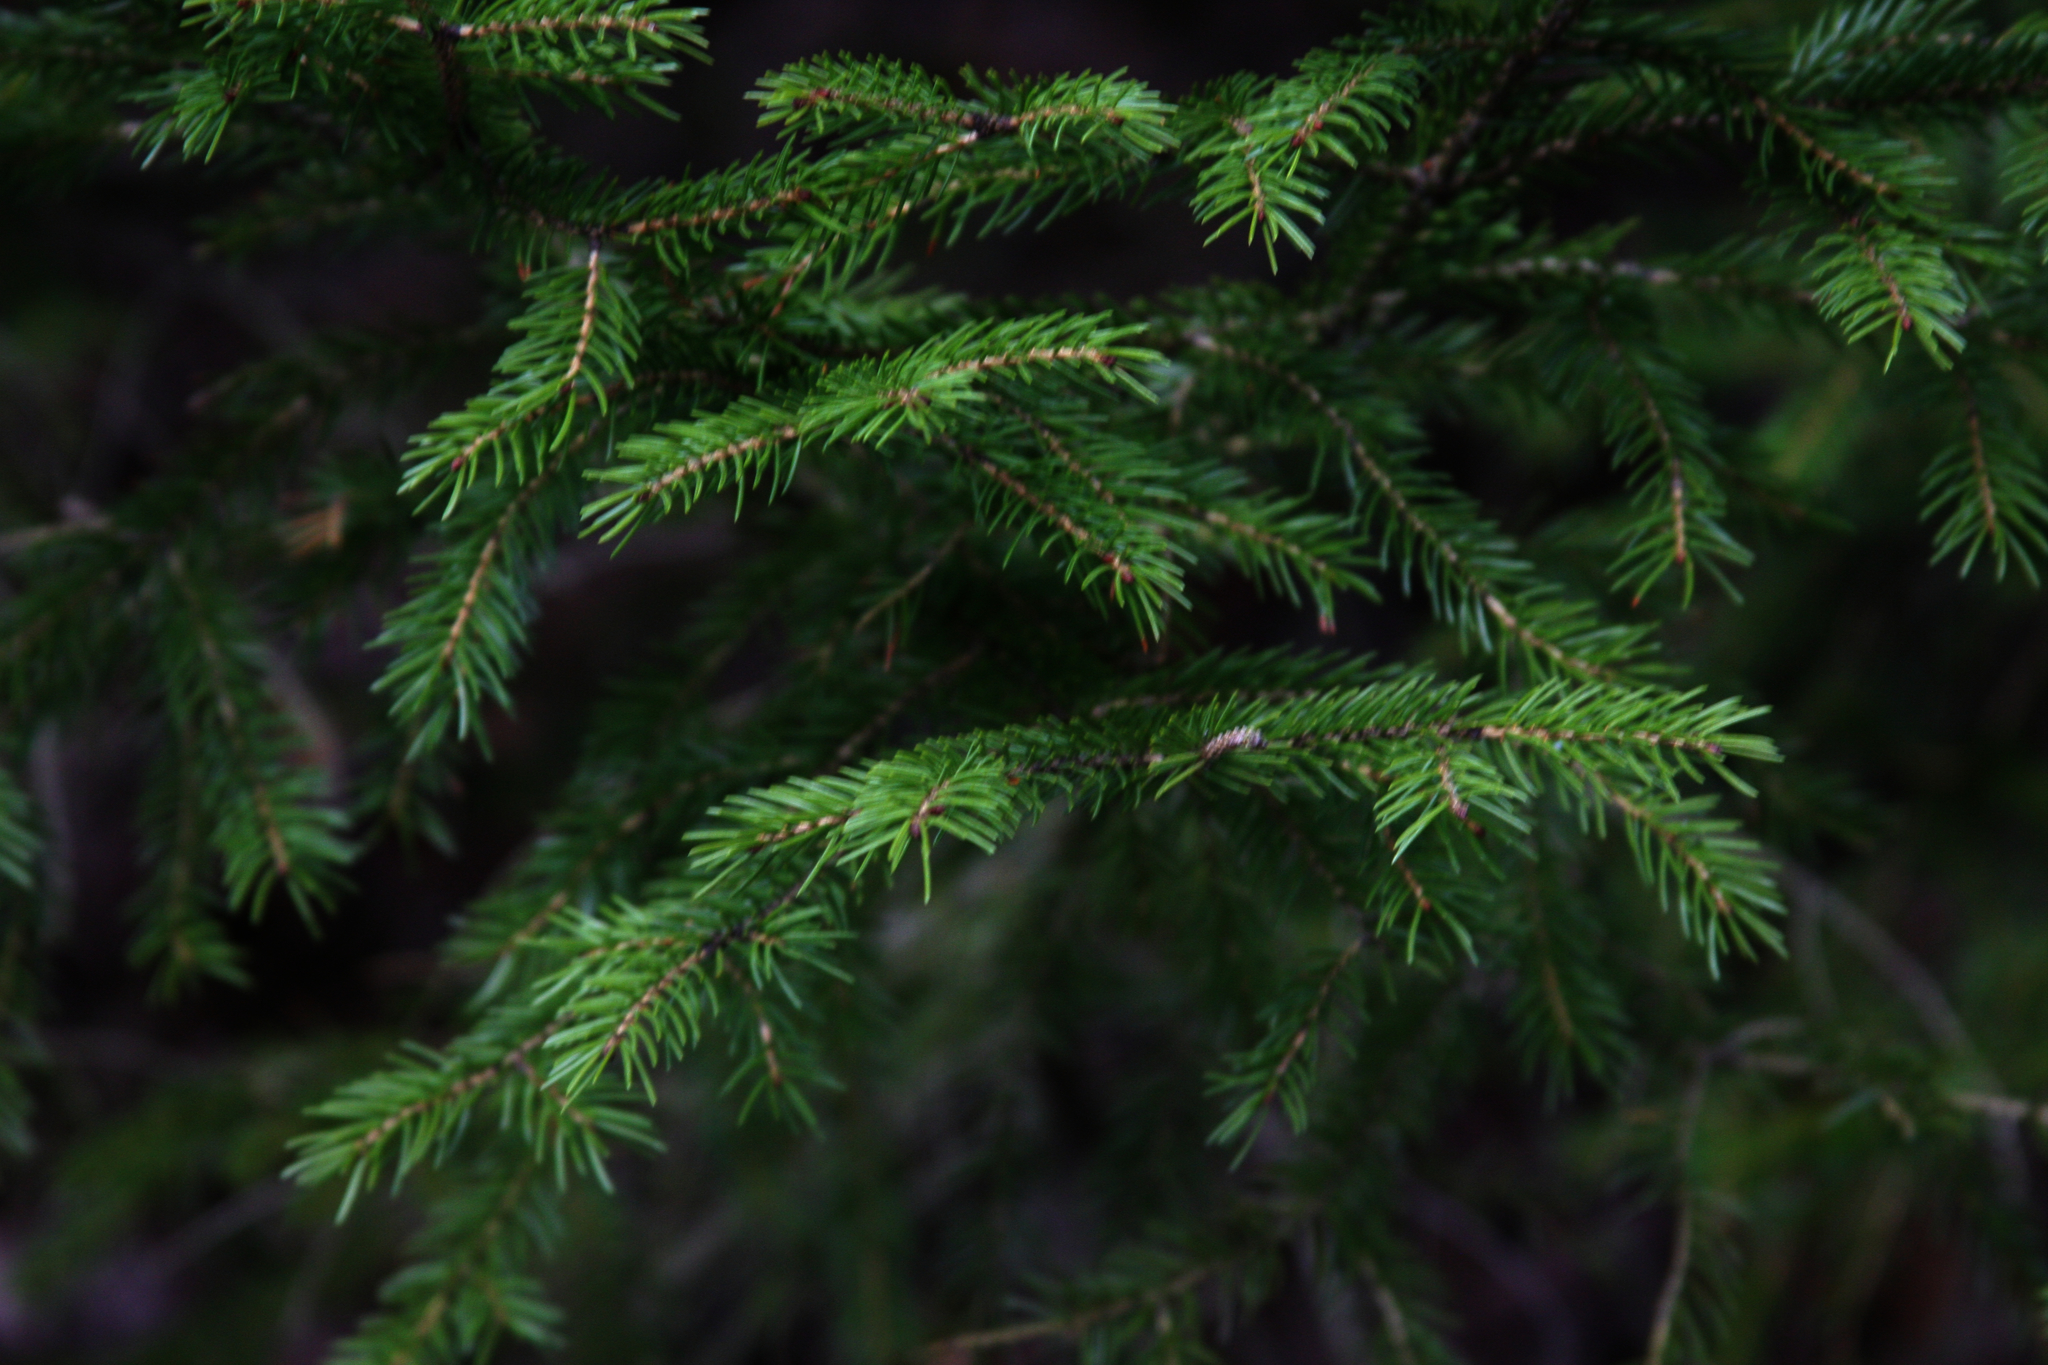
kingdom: Plantae
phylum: Tracheophyta
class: Pinopsida
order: Pinales
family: Pinaceae
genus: Picea
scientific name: Picea rubens
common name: Red spruce
